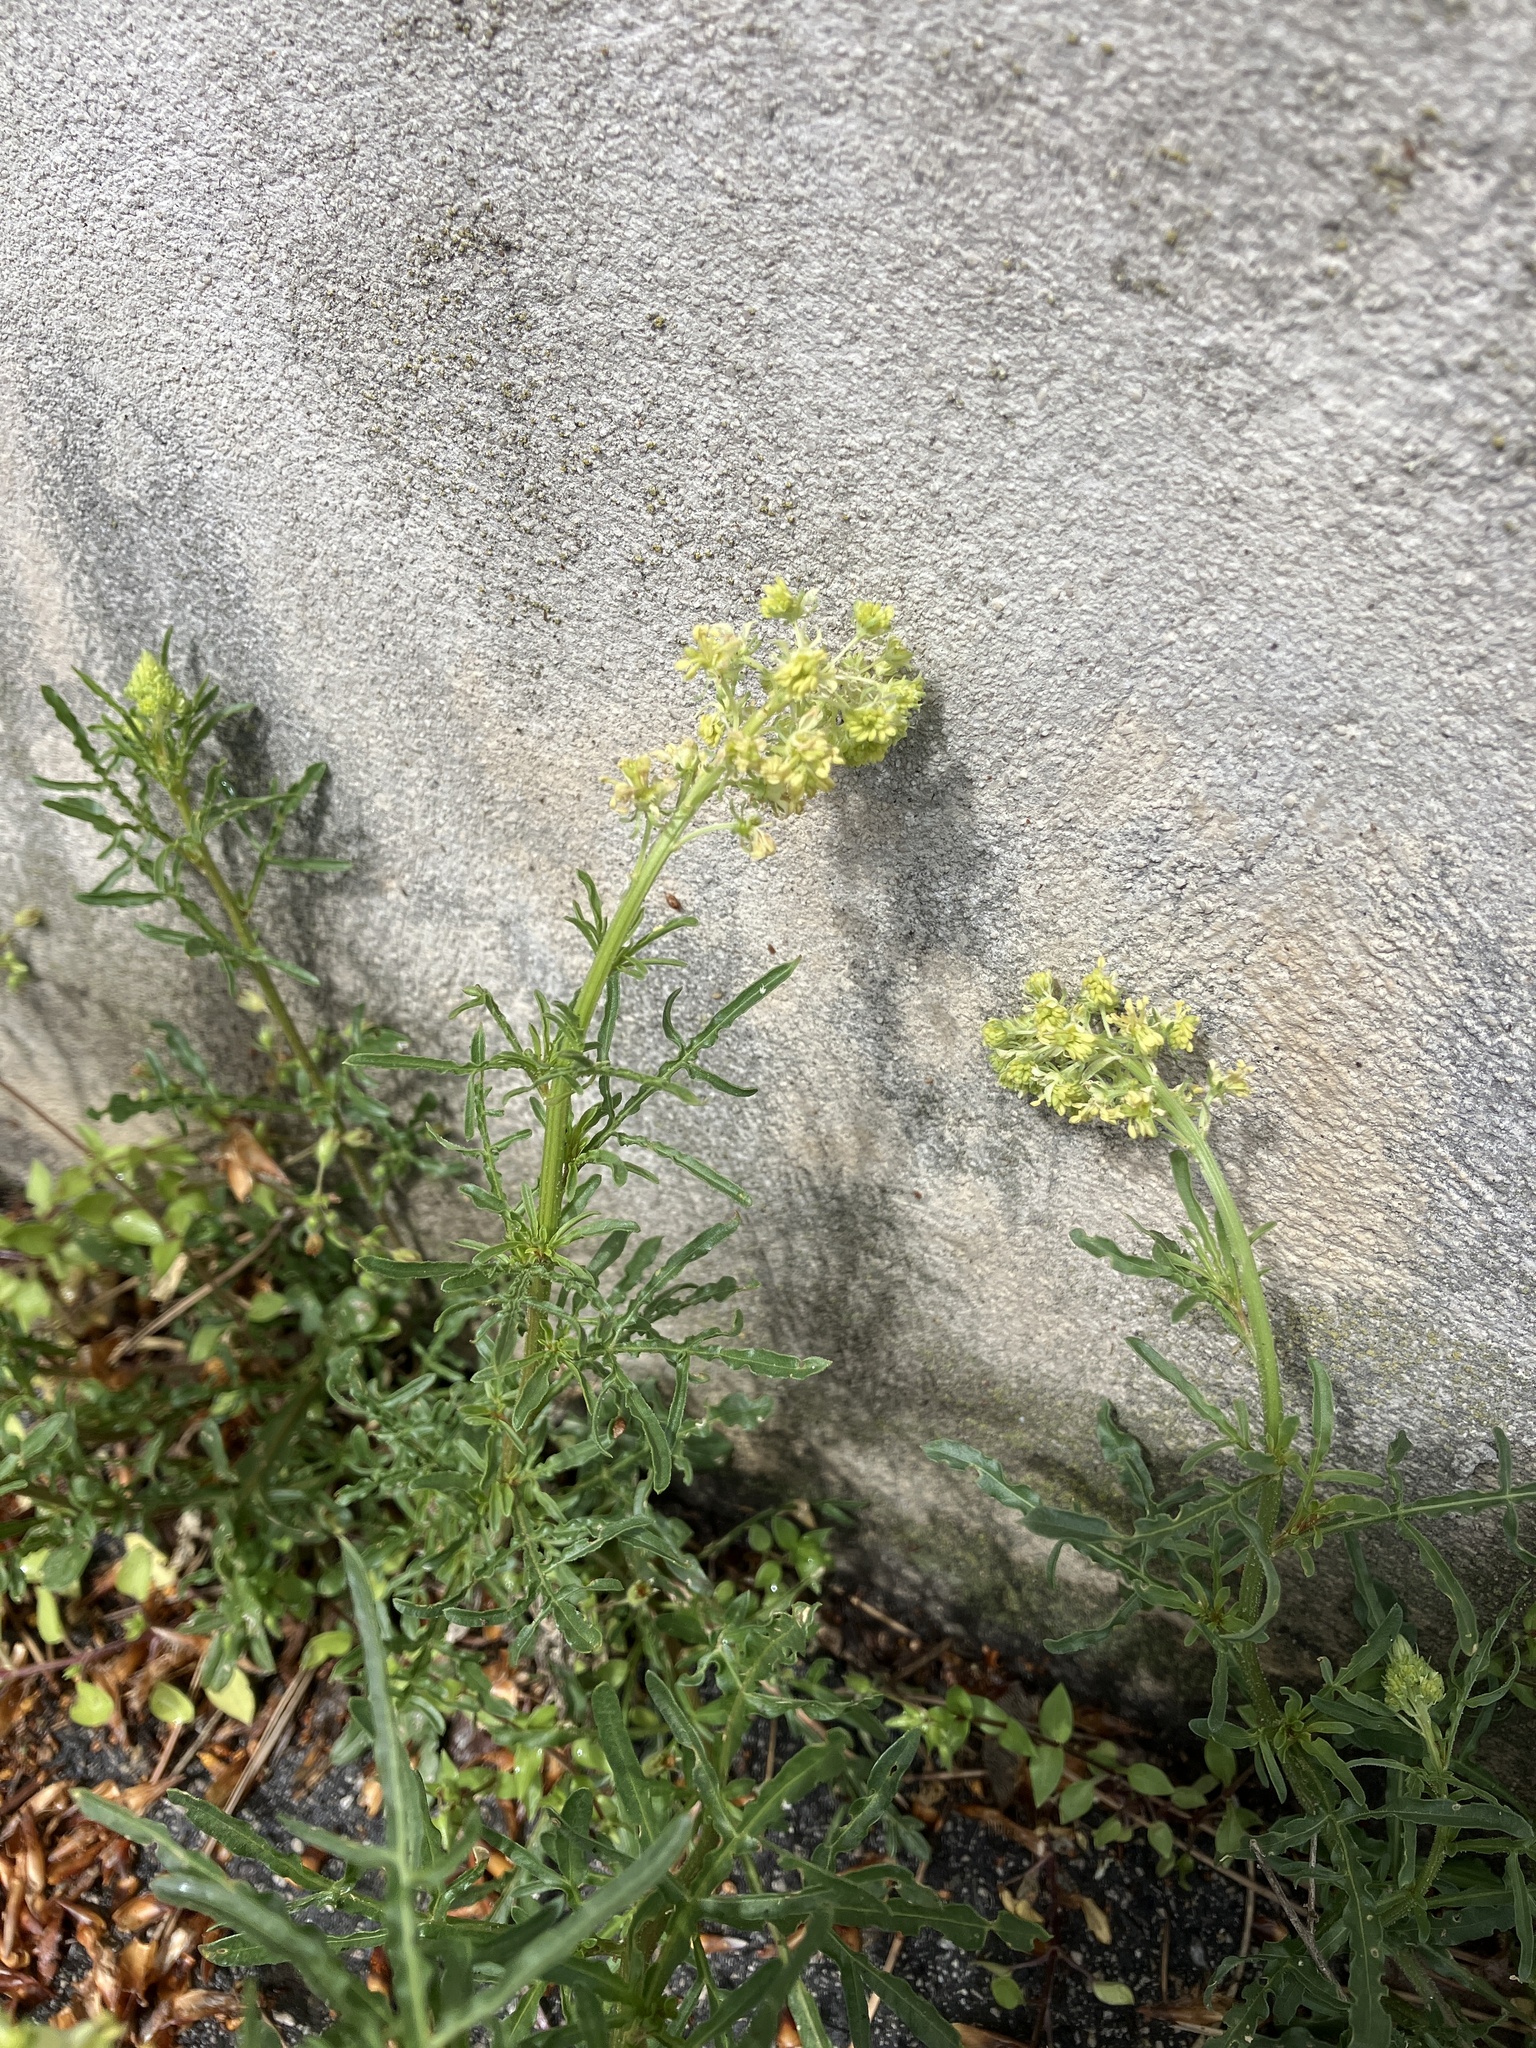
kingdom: Plantae
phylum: Tracheophyta
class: Magnoliopsida
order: Brassicales
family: Resedaceae
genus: Reseda
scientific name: Reseda lutea
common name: Wild mignonette
